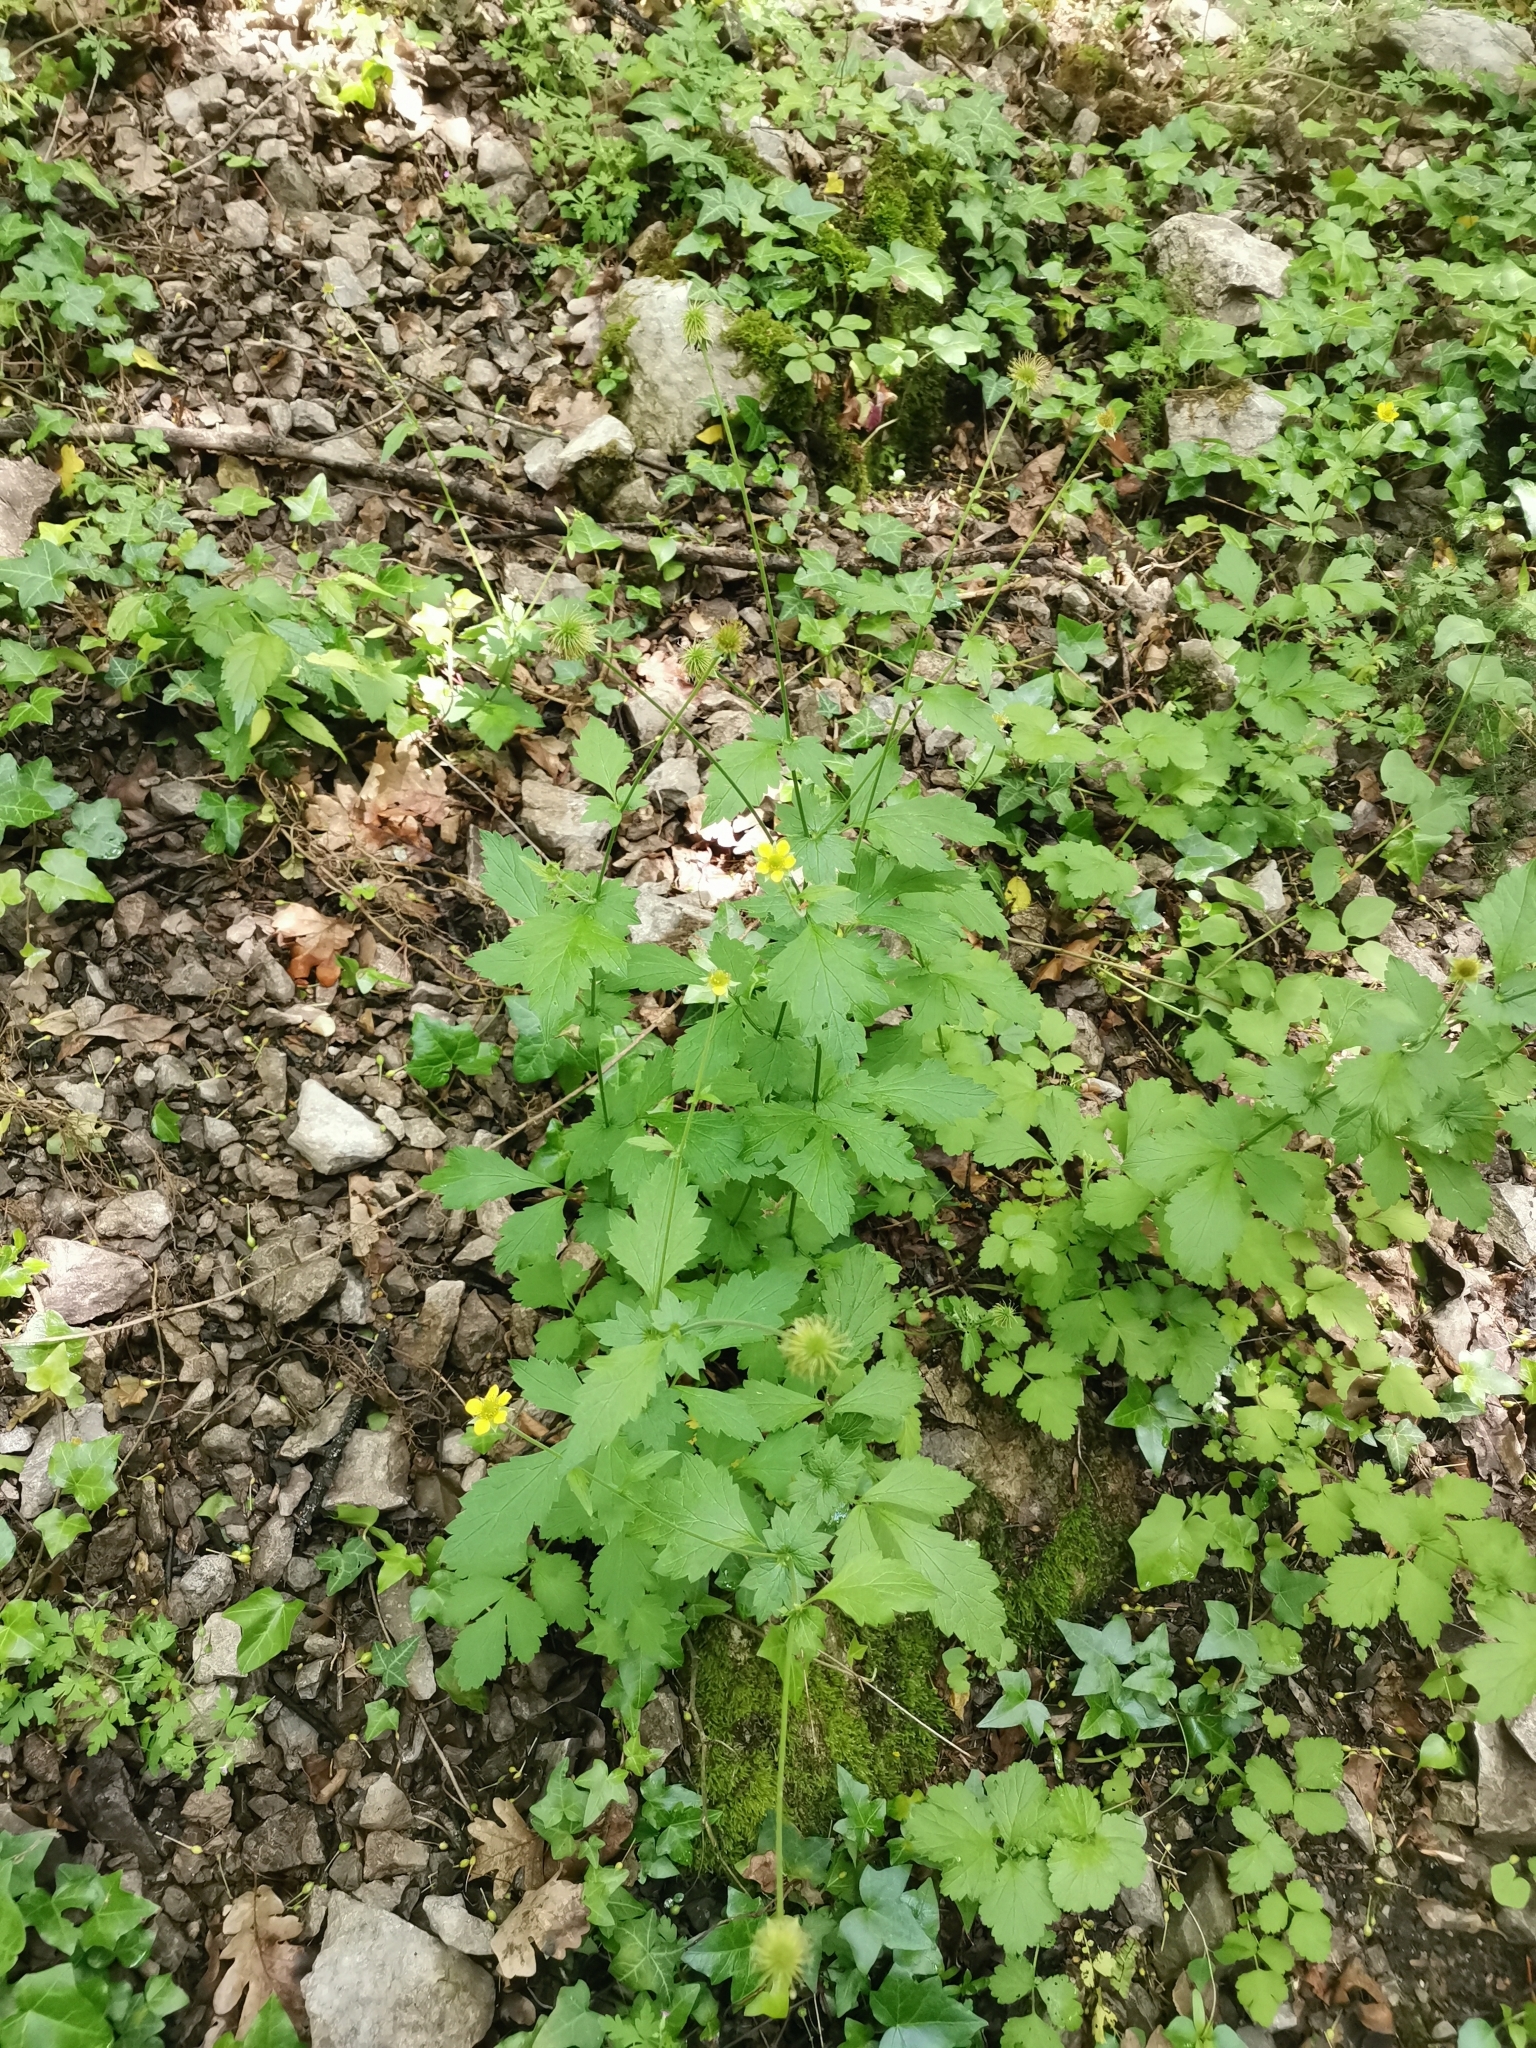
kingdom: Plantae
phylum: Tracheophyta
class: Magnoliopsida
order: Rosales
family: Rosaceae
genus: Geum
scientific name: Geum urbanum
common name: Wood avens
